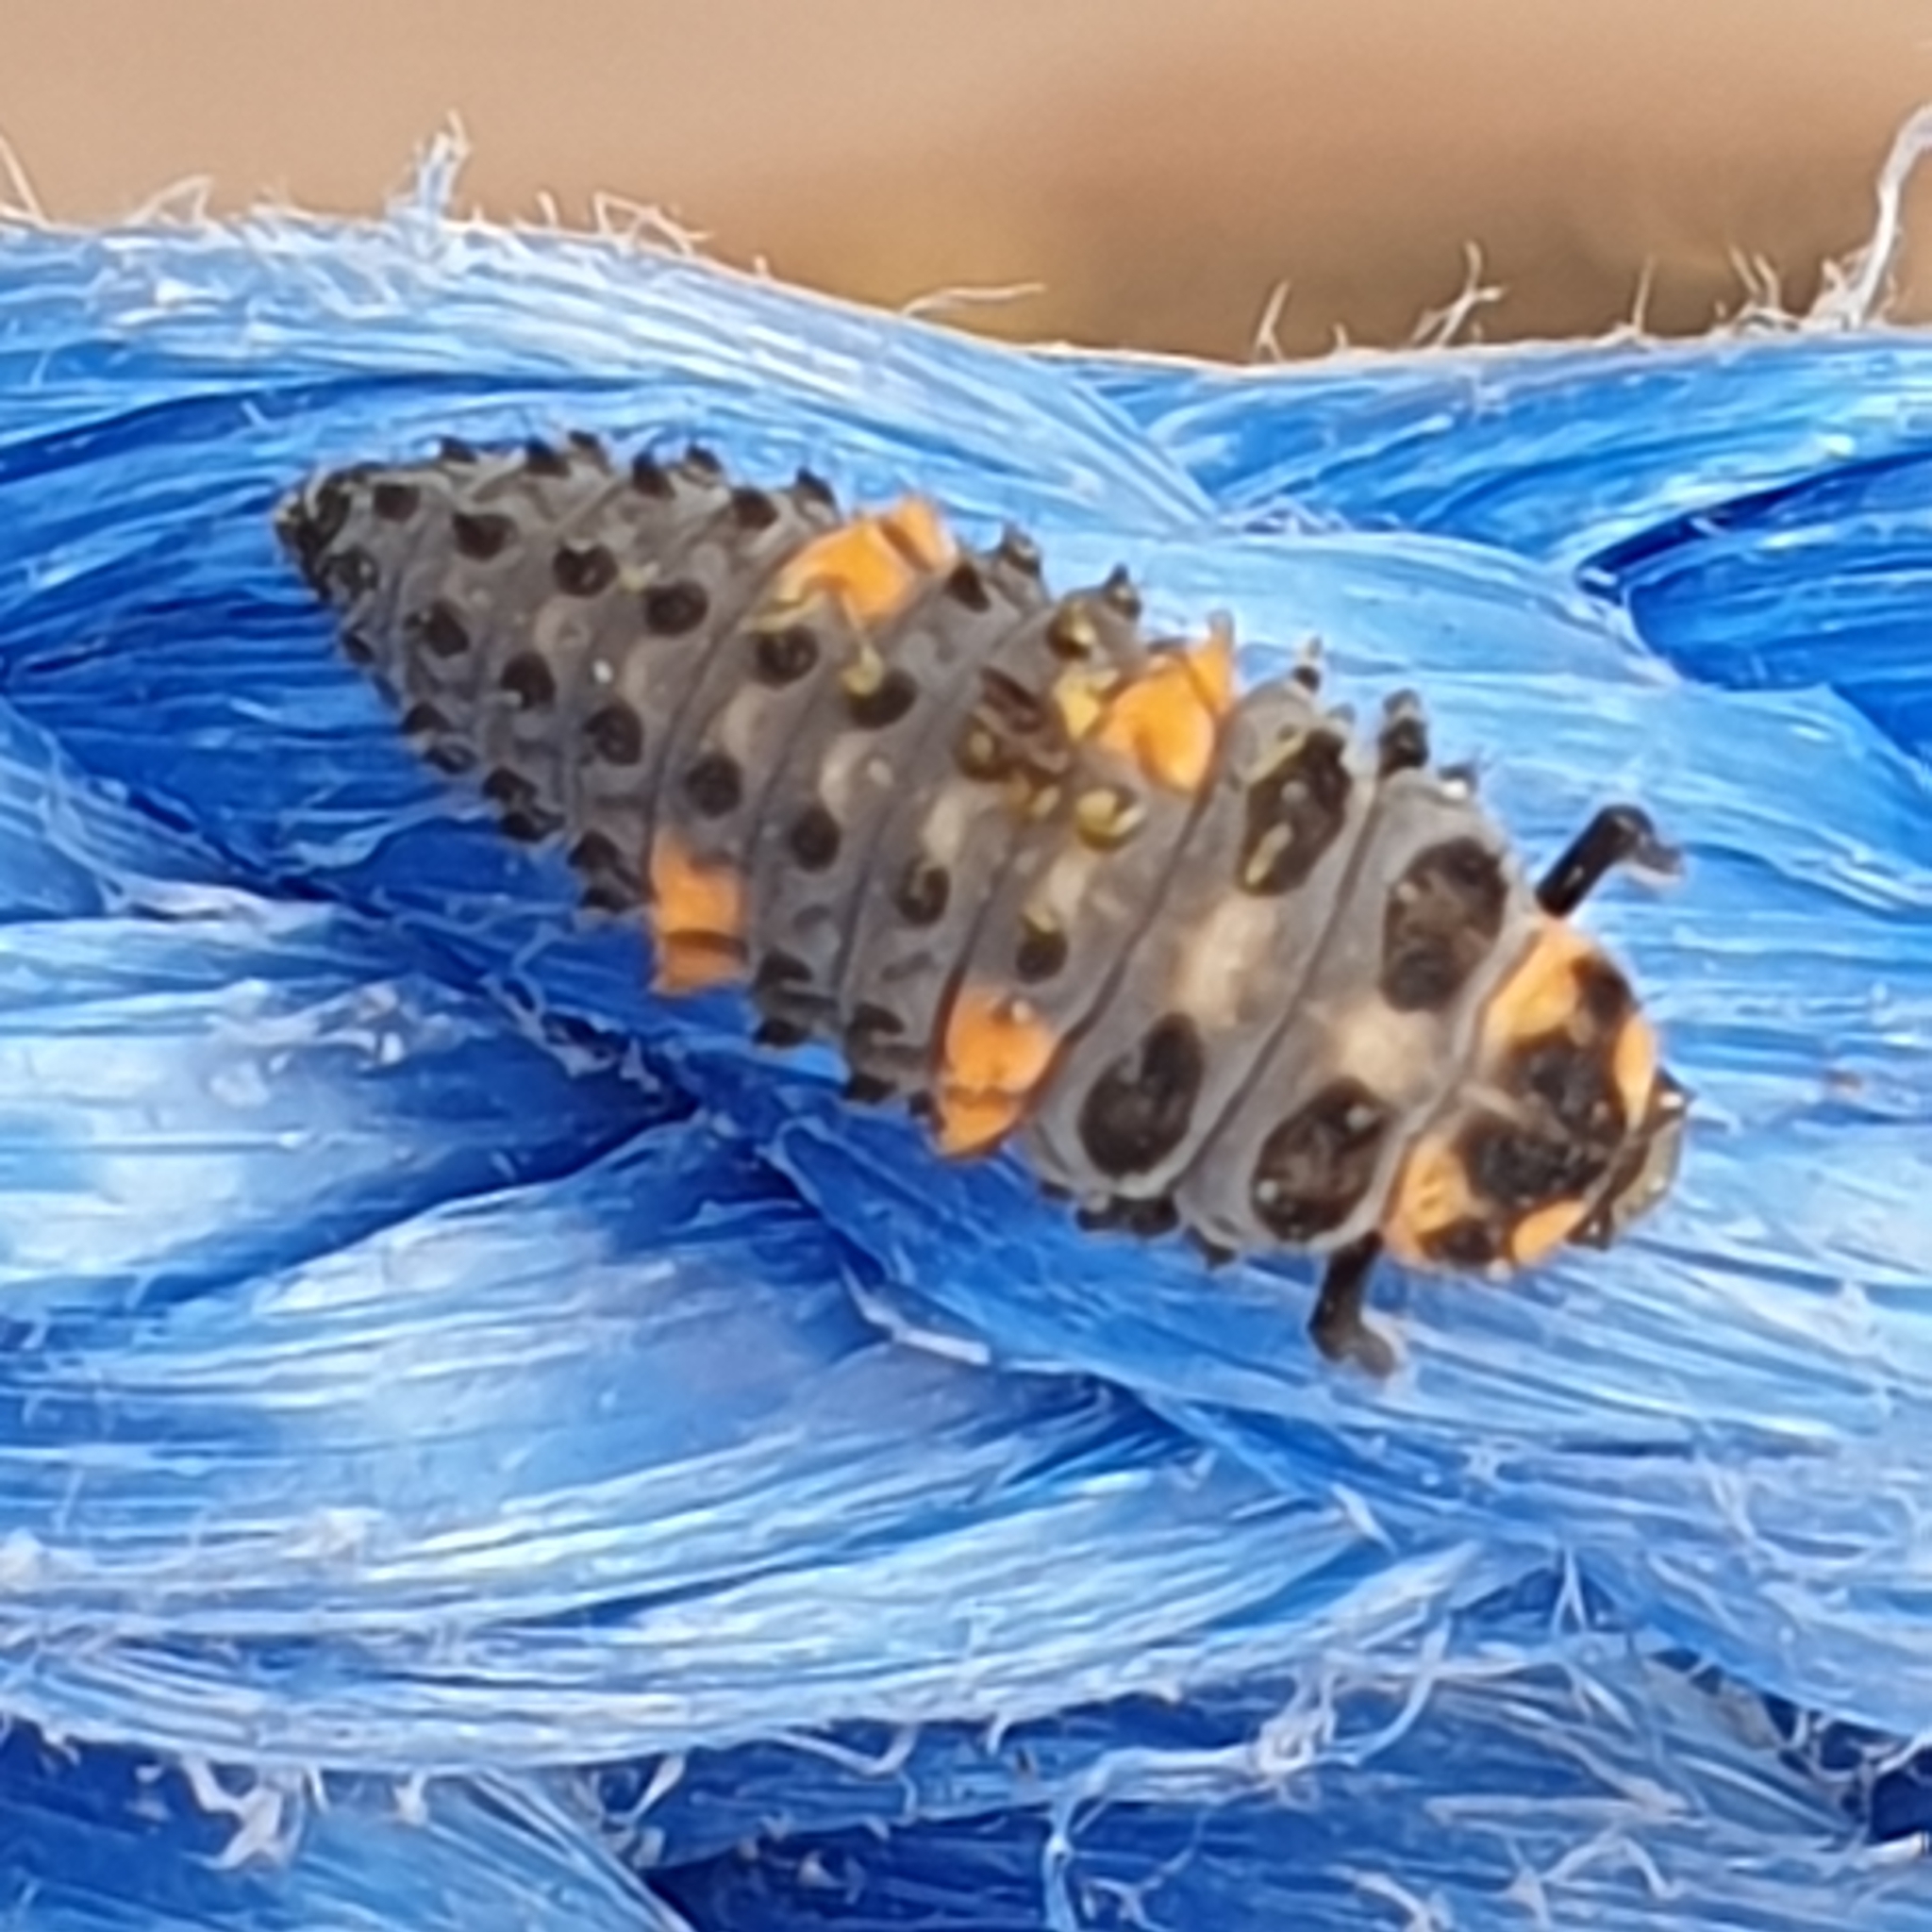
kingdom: Animalia
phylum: Arthropoda
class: Insecta
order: Coleoptera
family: Coccinellidae
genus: Coccinella
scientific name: Coccinella septempunctata
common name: Sevenspotted lady beetle
